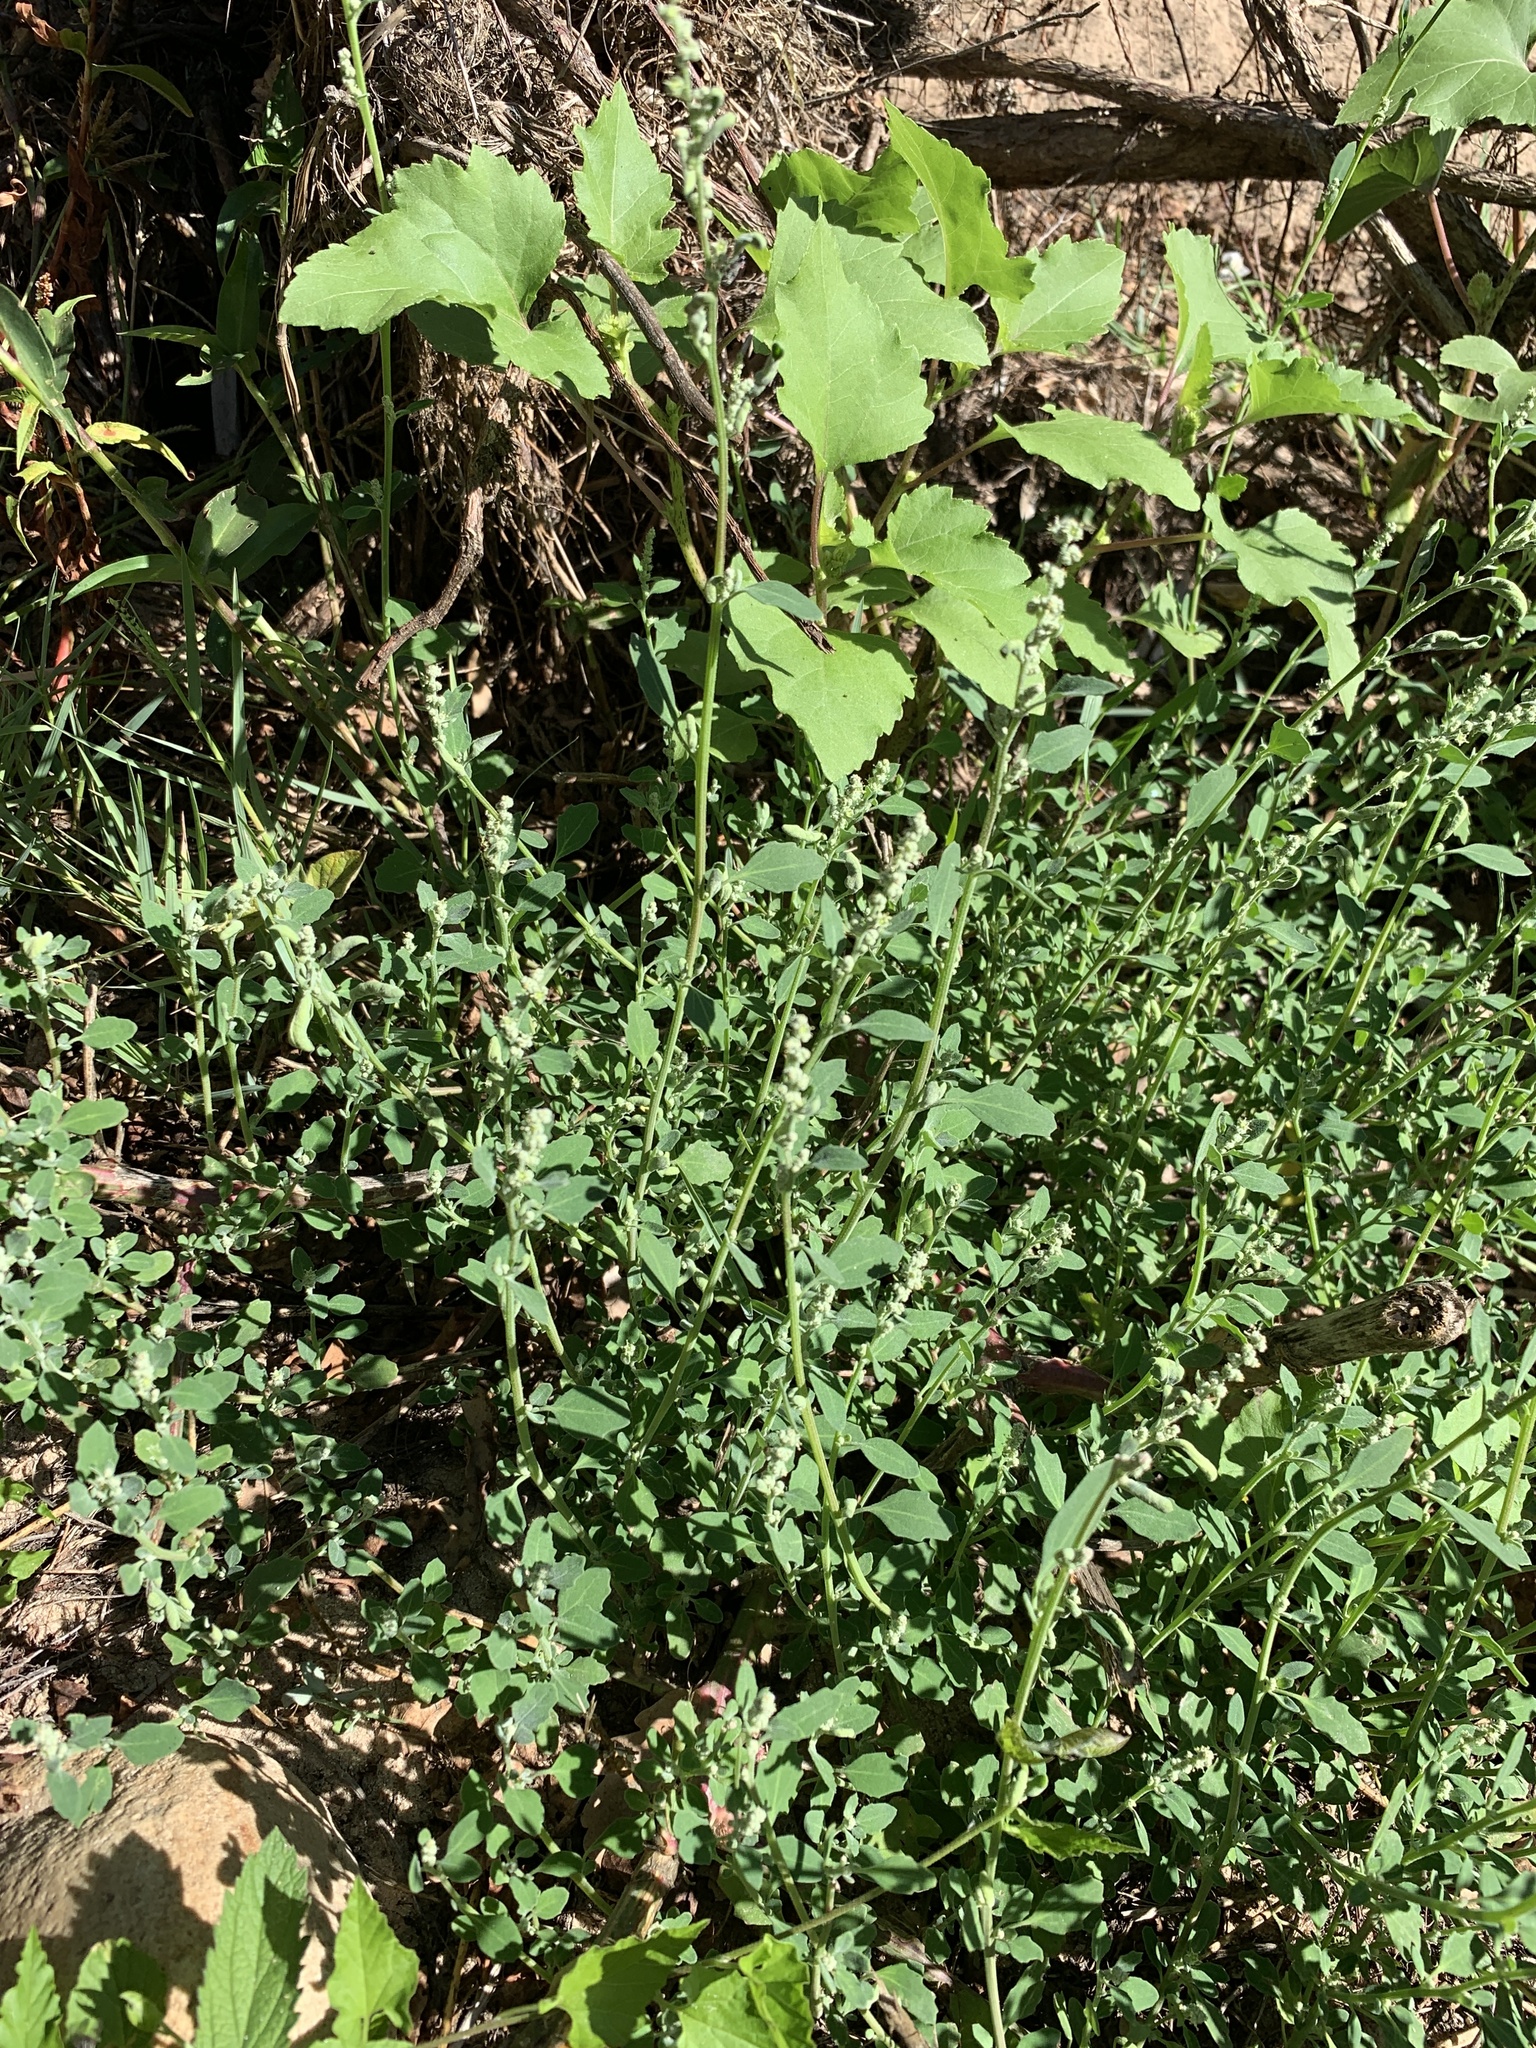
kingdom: Plantae
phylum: Tracheophyta
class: Magnoliopsida
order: Caryophyllales
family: Polygonaceae
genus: Polygonum
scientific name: Polygonum aviculare
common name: Prostrate knotweed
